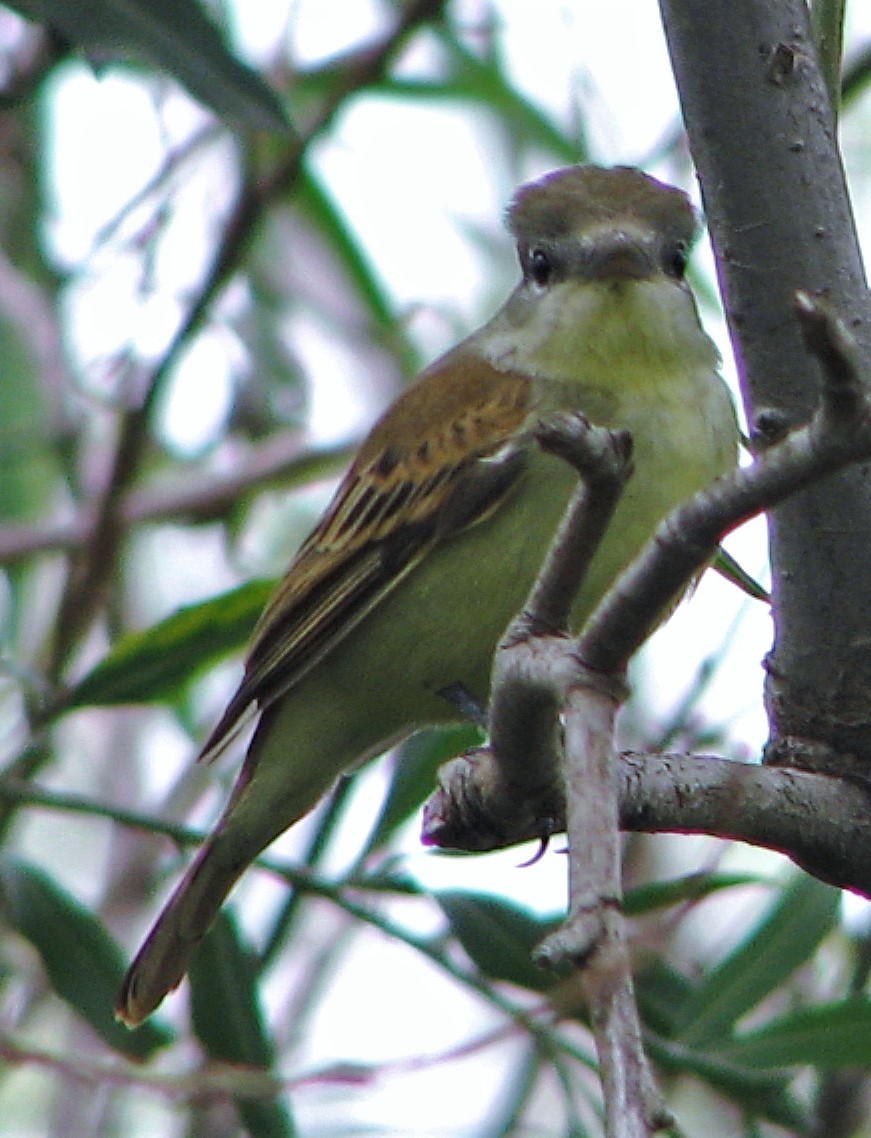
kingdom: Animalia
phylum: Chordata
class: Aves
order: Passeriformes
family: Cotingidae
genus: Pachyramphus
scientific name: Pachyramphus polychopterus
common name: White-winged becard
